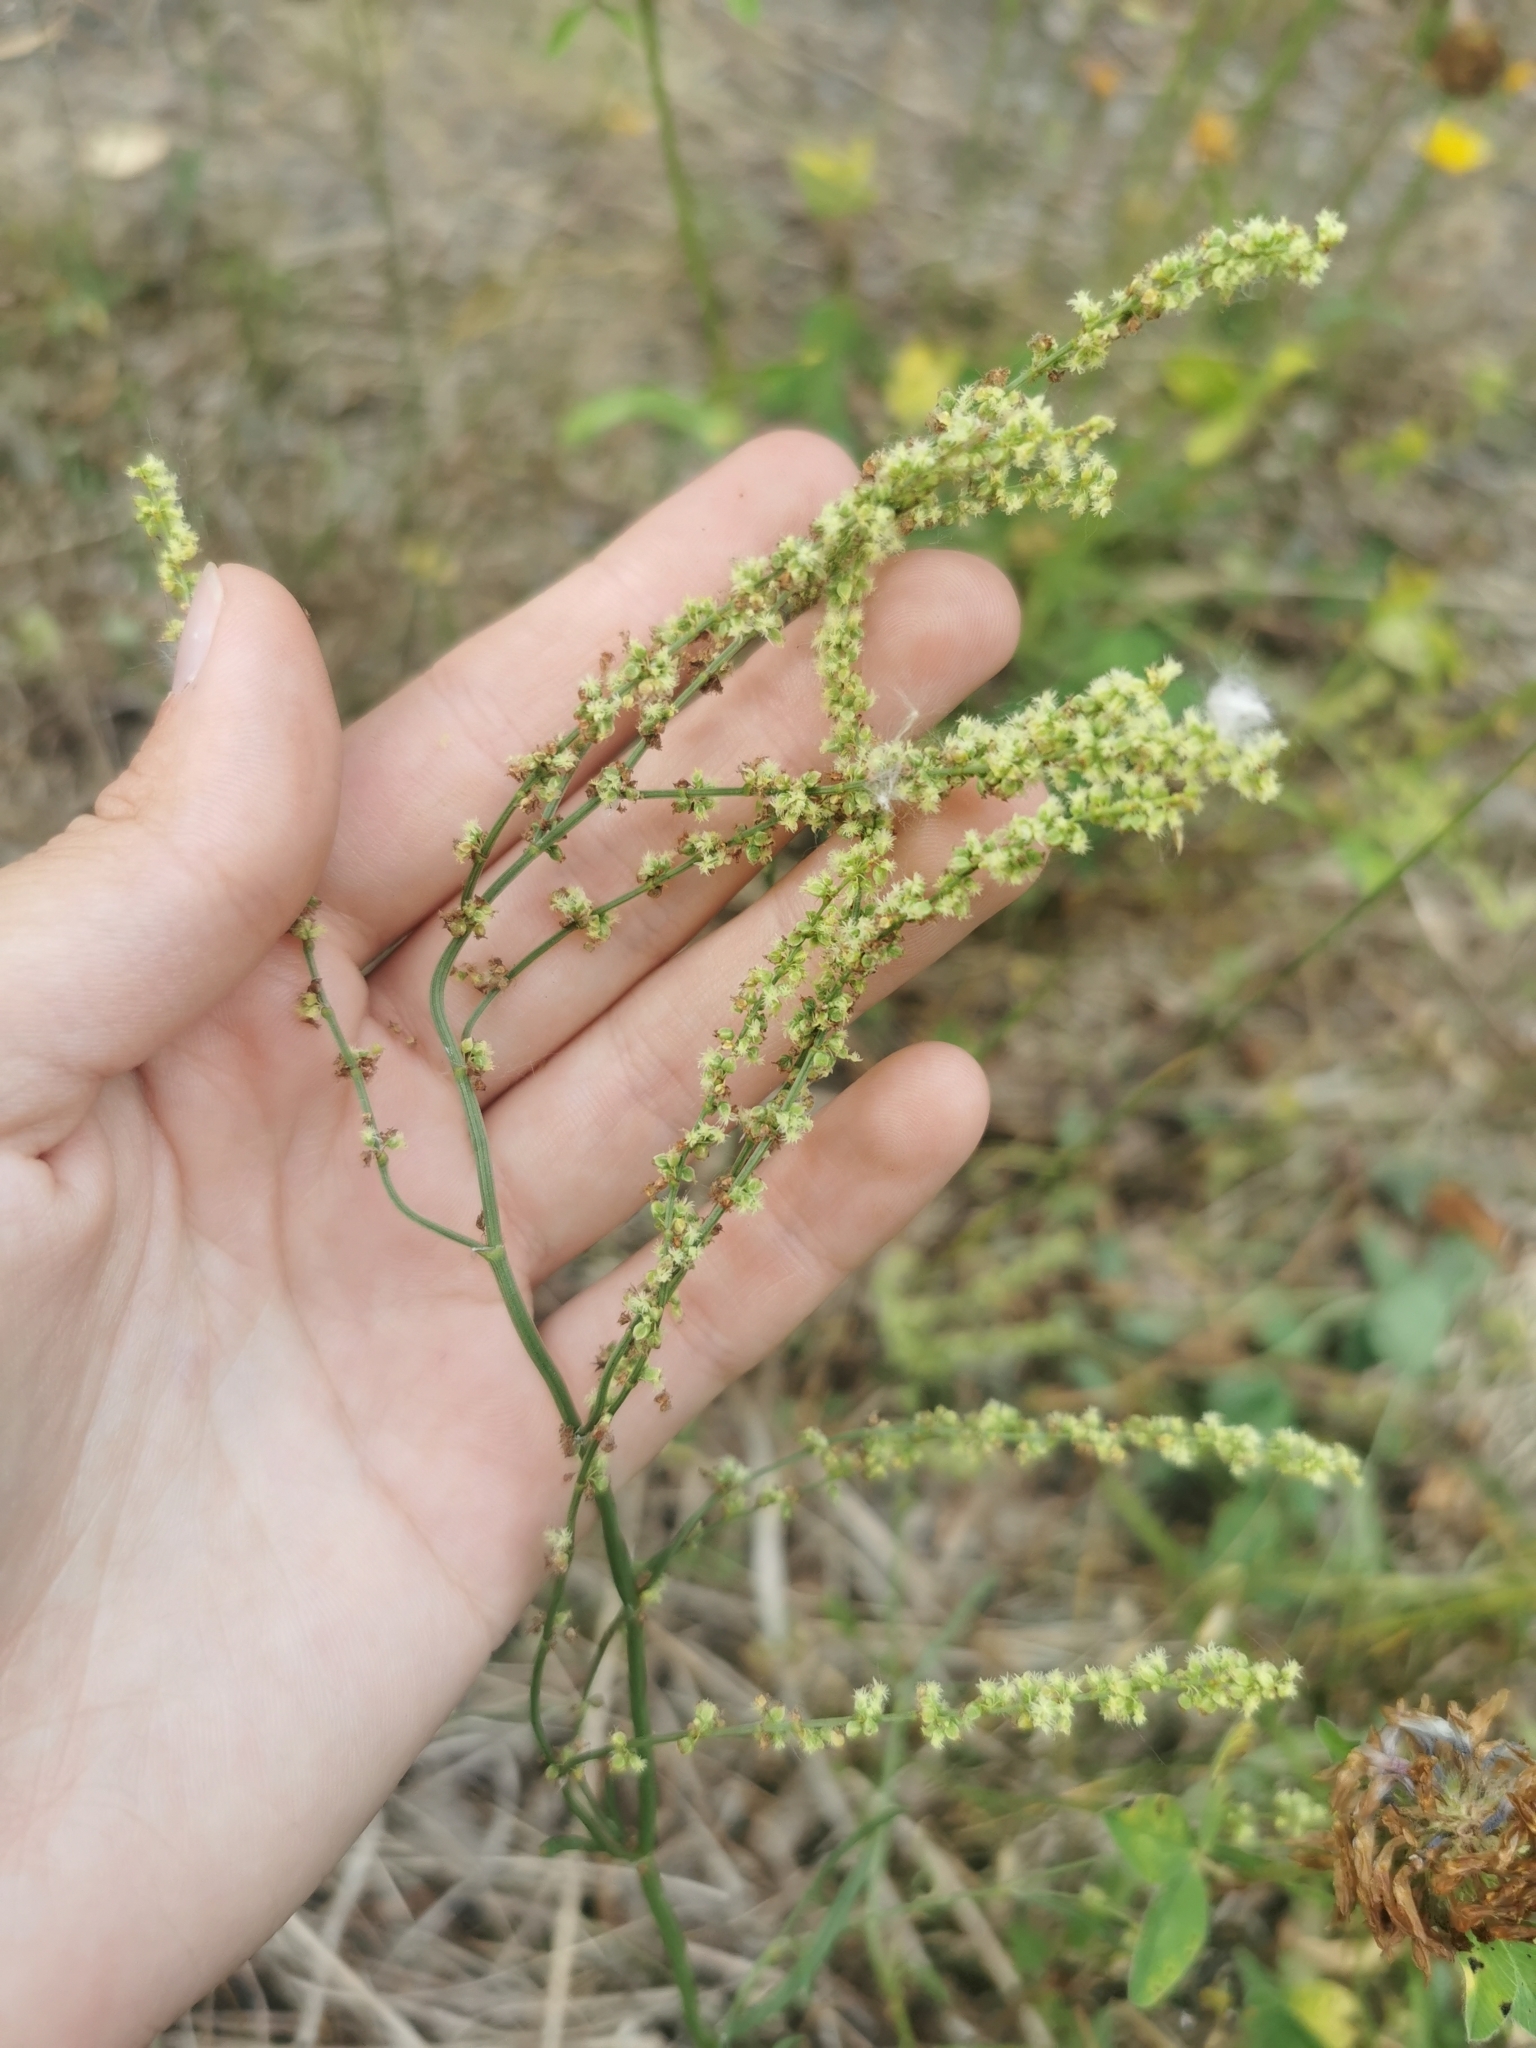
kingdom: Plantae
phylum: Tracheophyta
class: Magnoliopsida
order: Caryophyllales
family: Polygonaceae
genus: Rumex
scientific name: Rumex acetosella
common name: Common sheep sorrel
